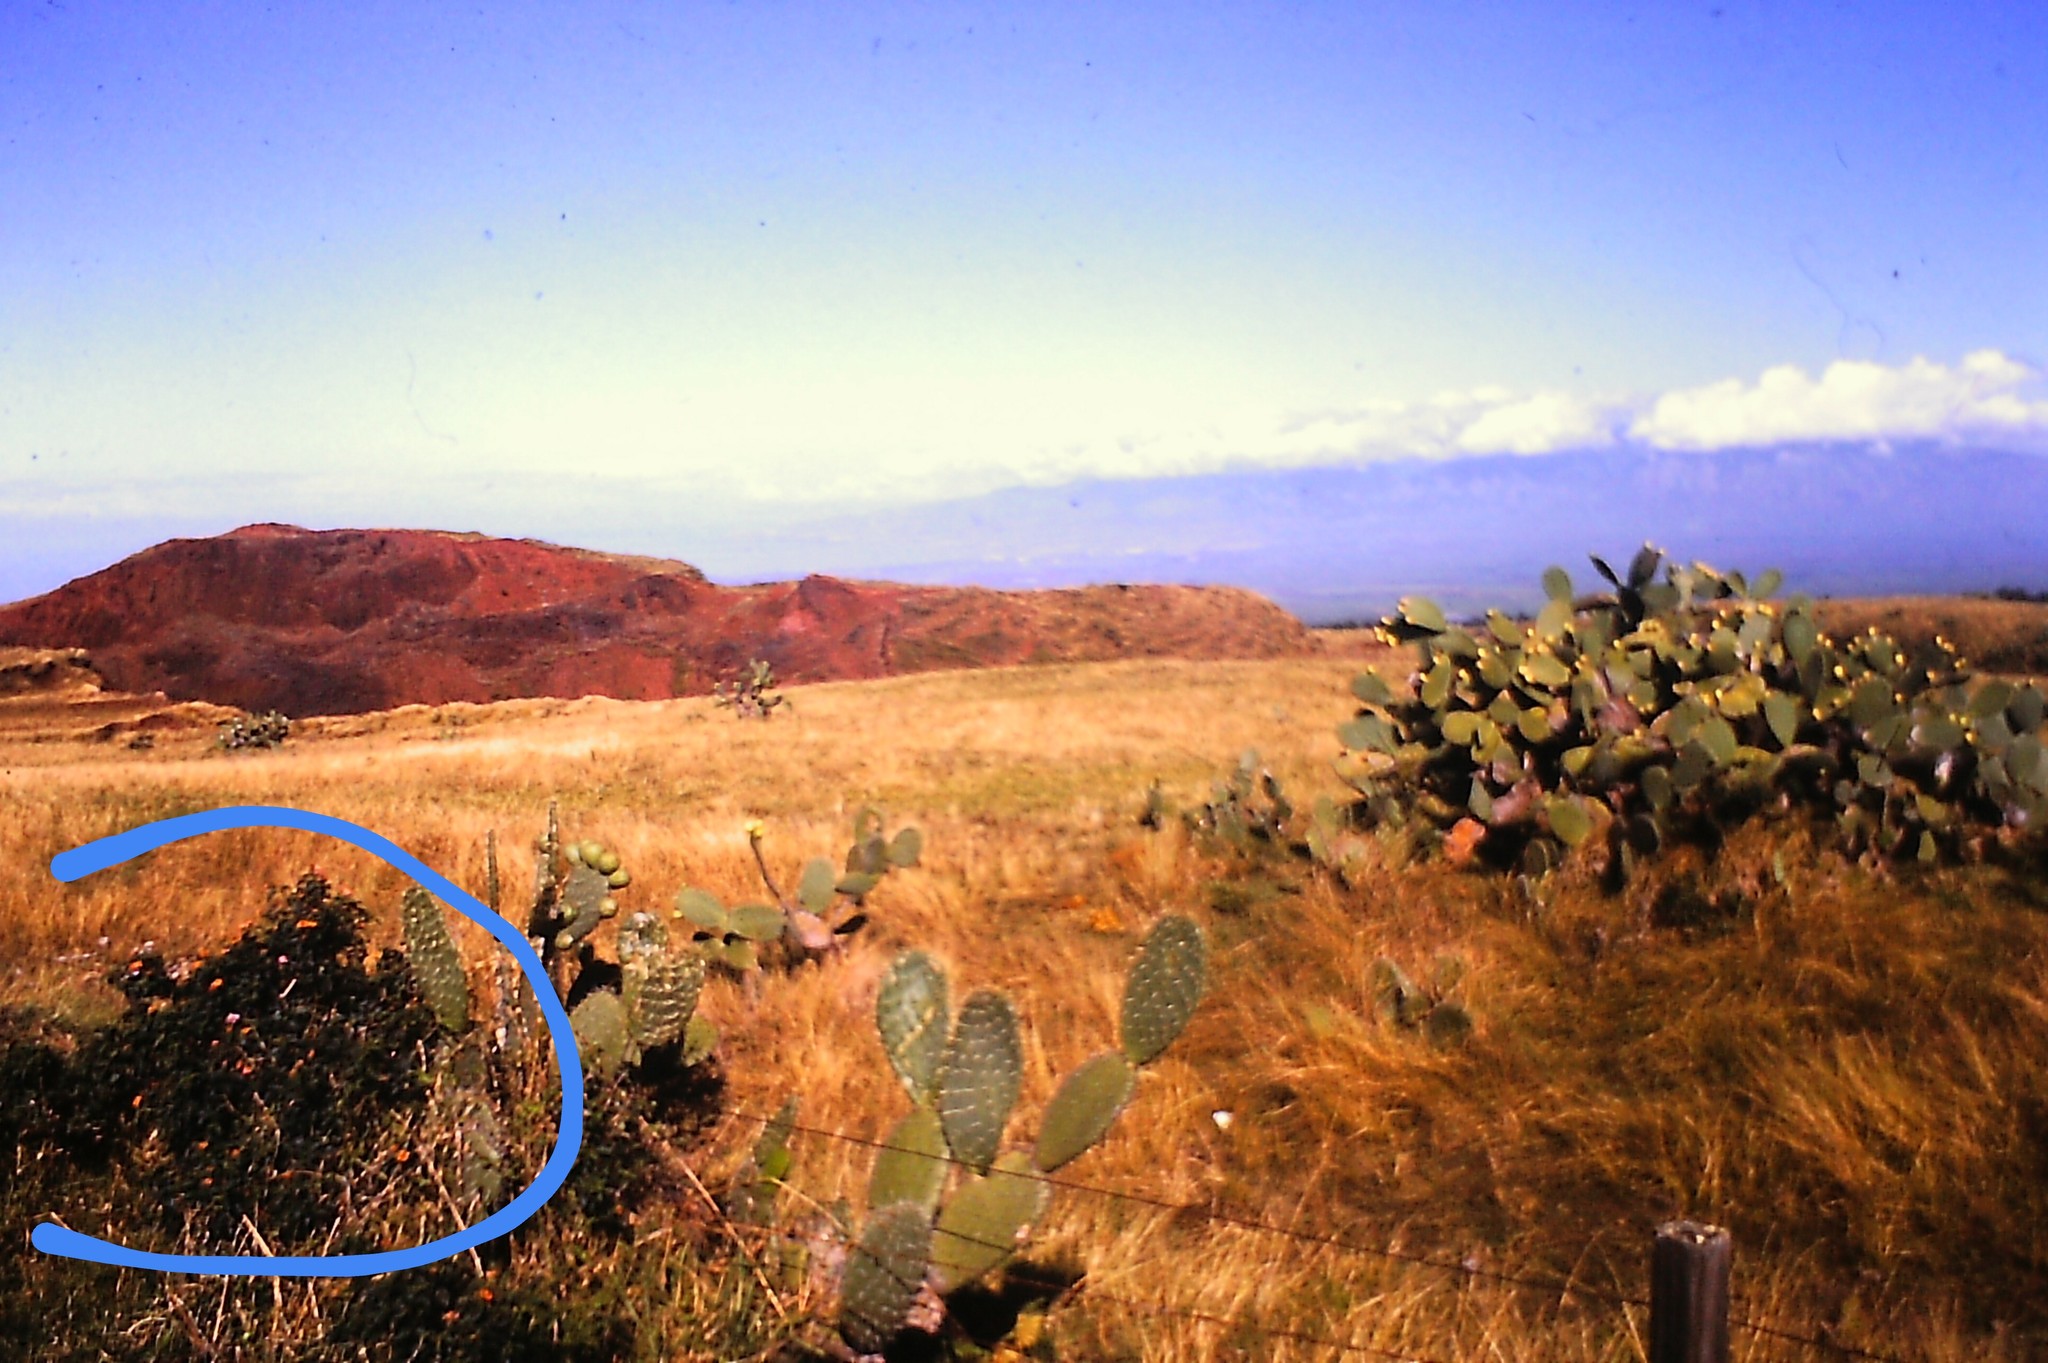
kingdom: Plantae
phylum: Tracheophyta
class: Magnoliopsida
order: Lamiales
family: Verbenaceae
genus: Lantana
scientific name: Lantana camara
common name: Lantana
